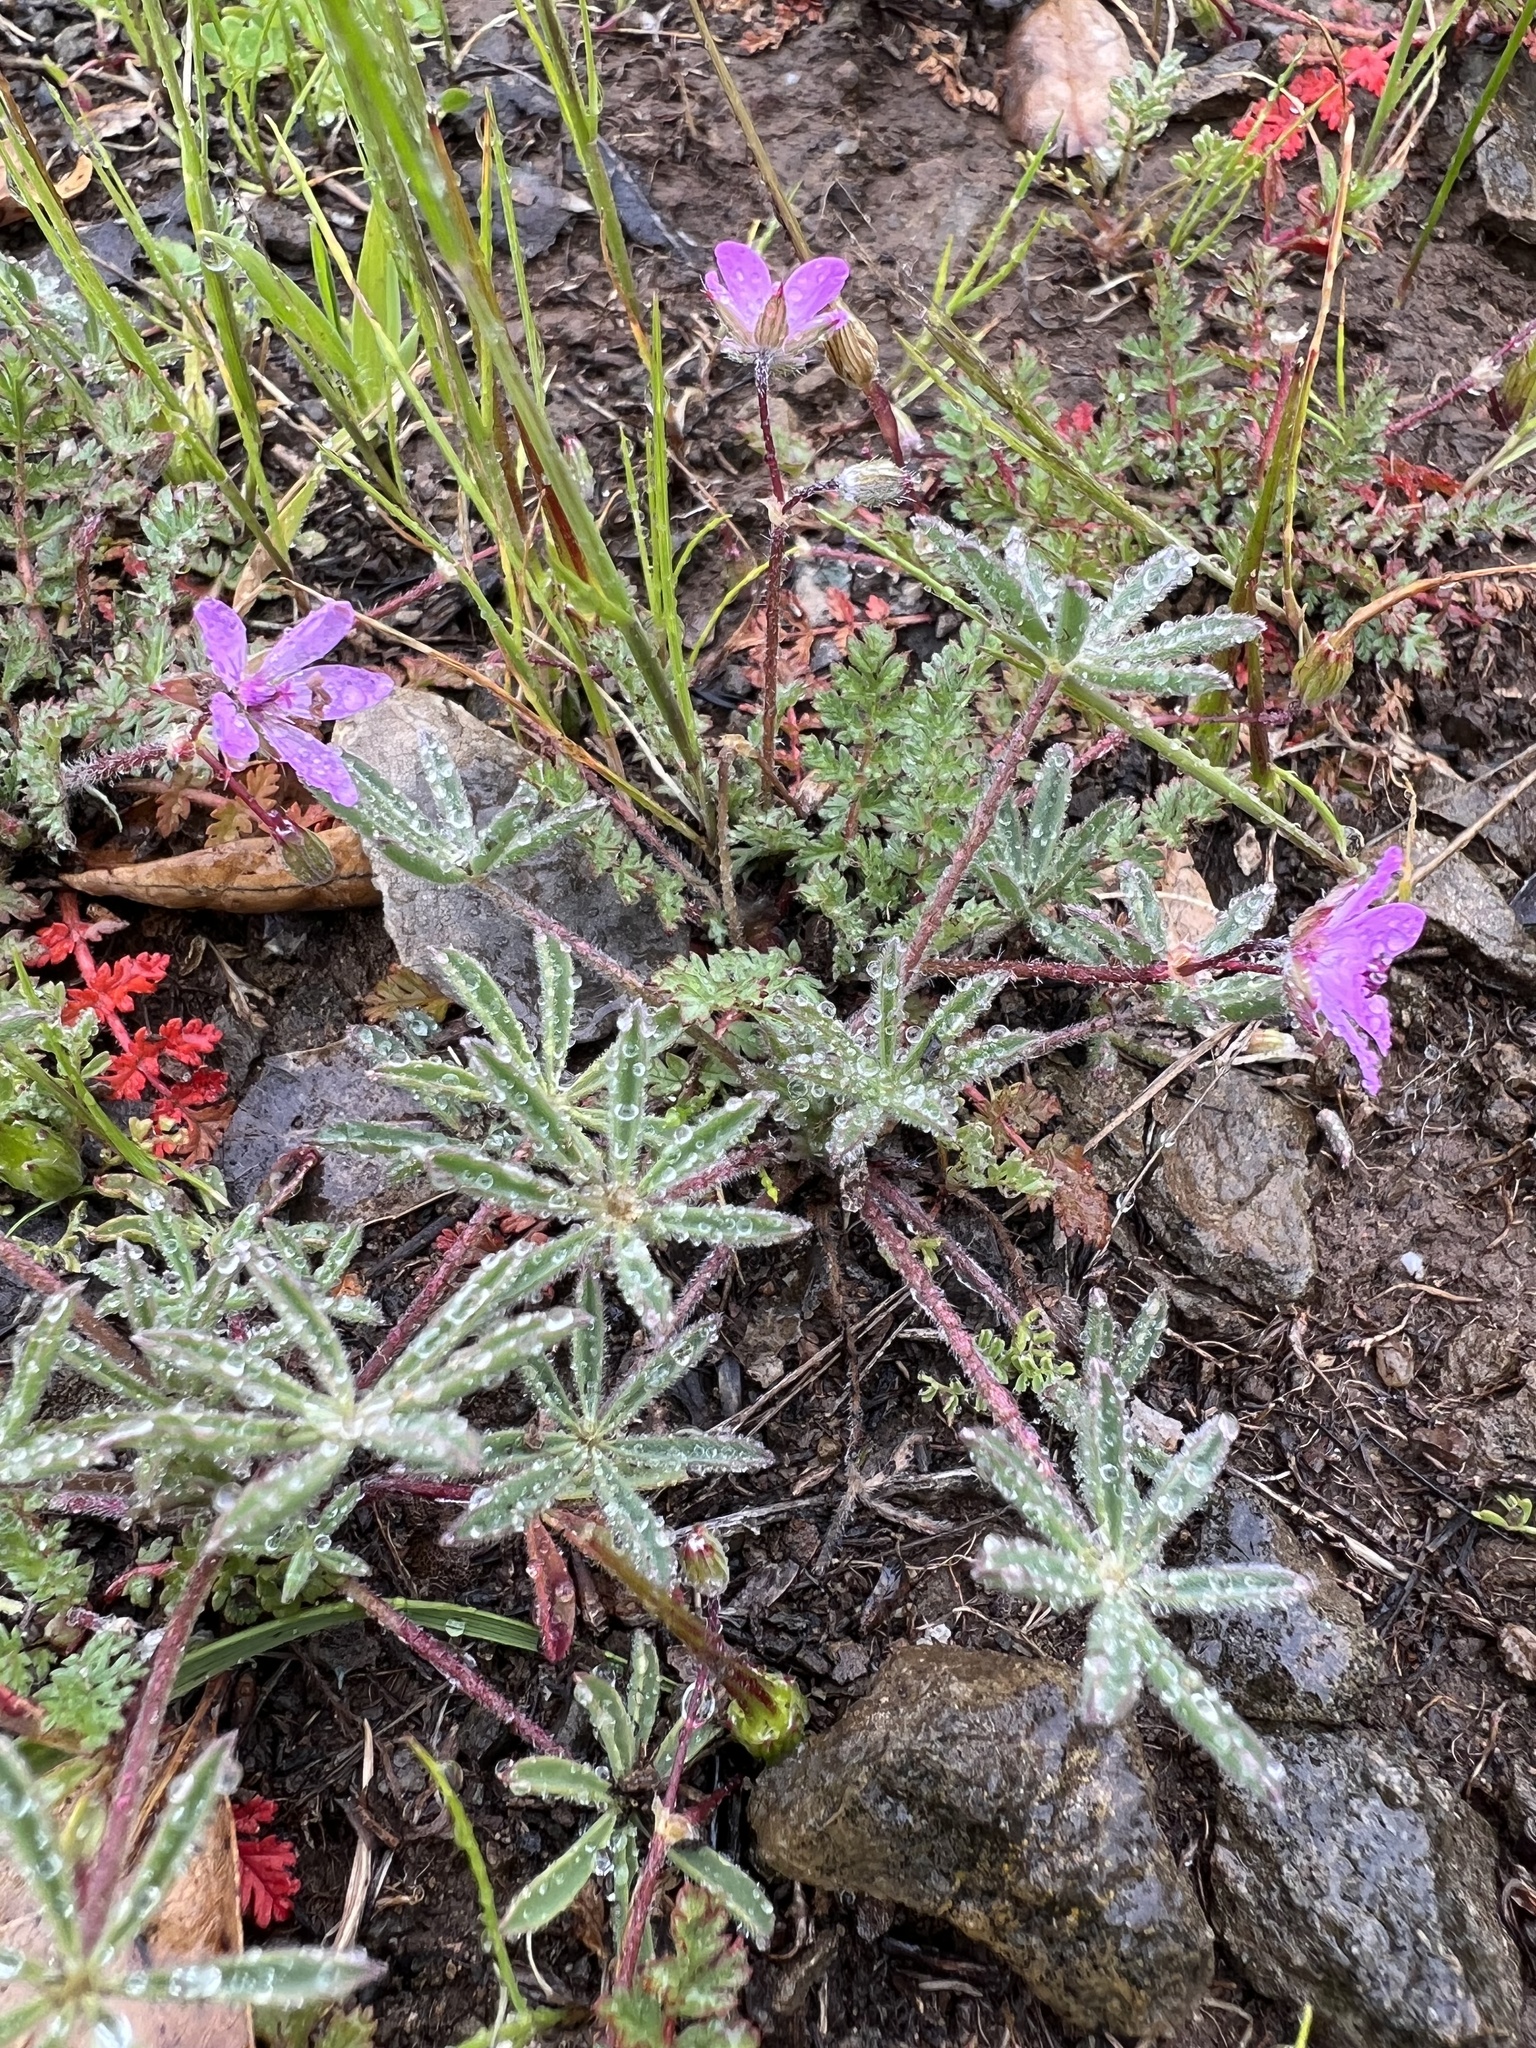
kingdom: Plantae
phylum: Tracheophyta
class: Magnoliopsida
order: Geraniales
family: Geraniaceae
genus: Erodium
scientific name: Erodium cicutarium
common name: Common stork's-bill
